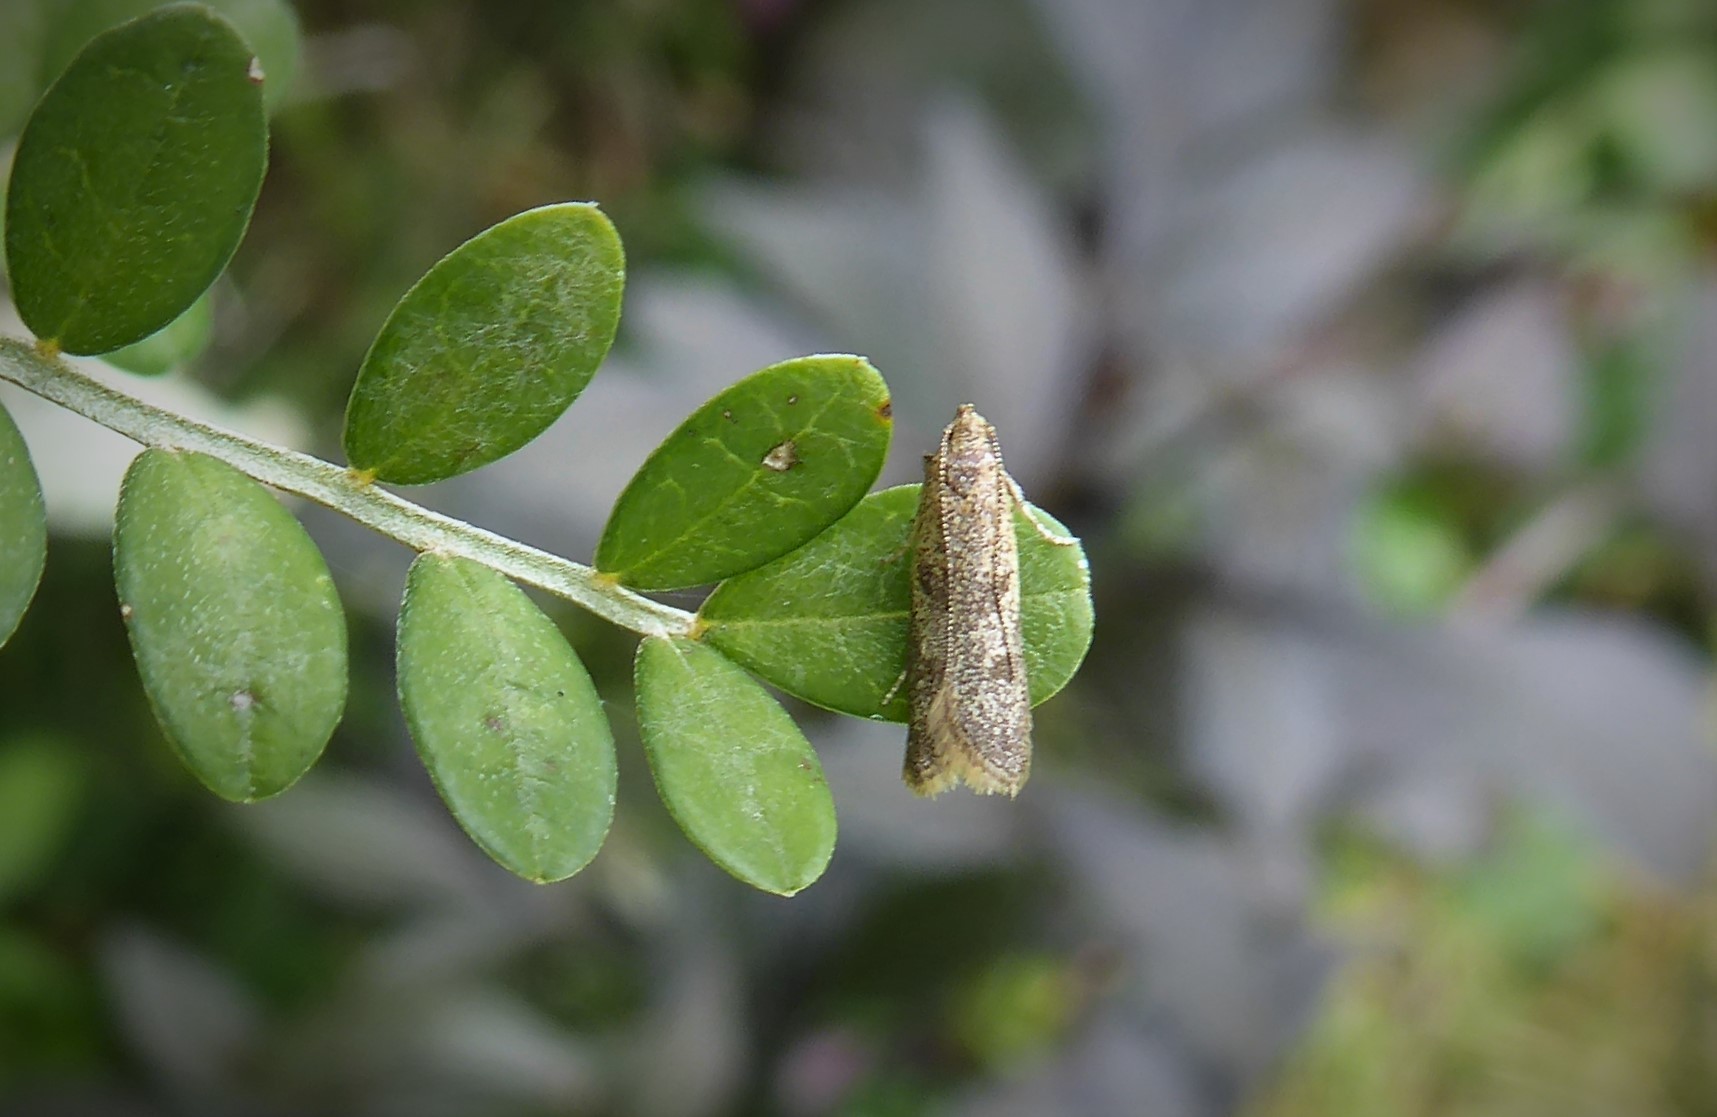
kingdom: Animalia
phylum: Arthropoda
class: Insecta
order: Lepidoptera
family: Oecophoridae
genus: Gymnobathra
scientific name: Gymnobathra tholodella
